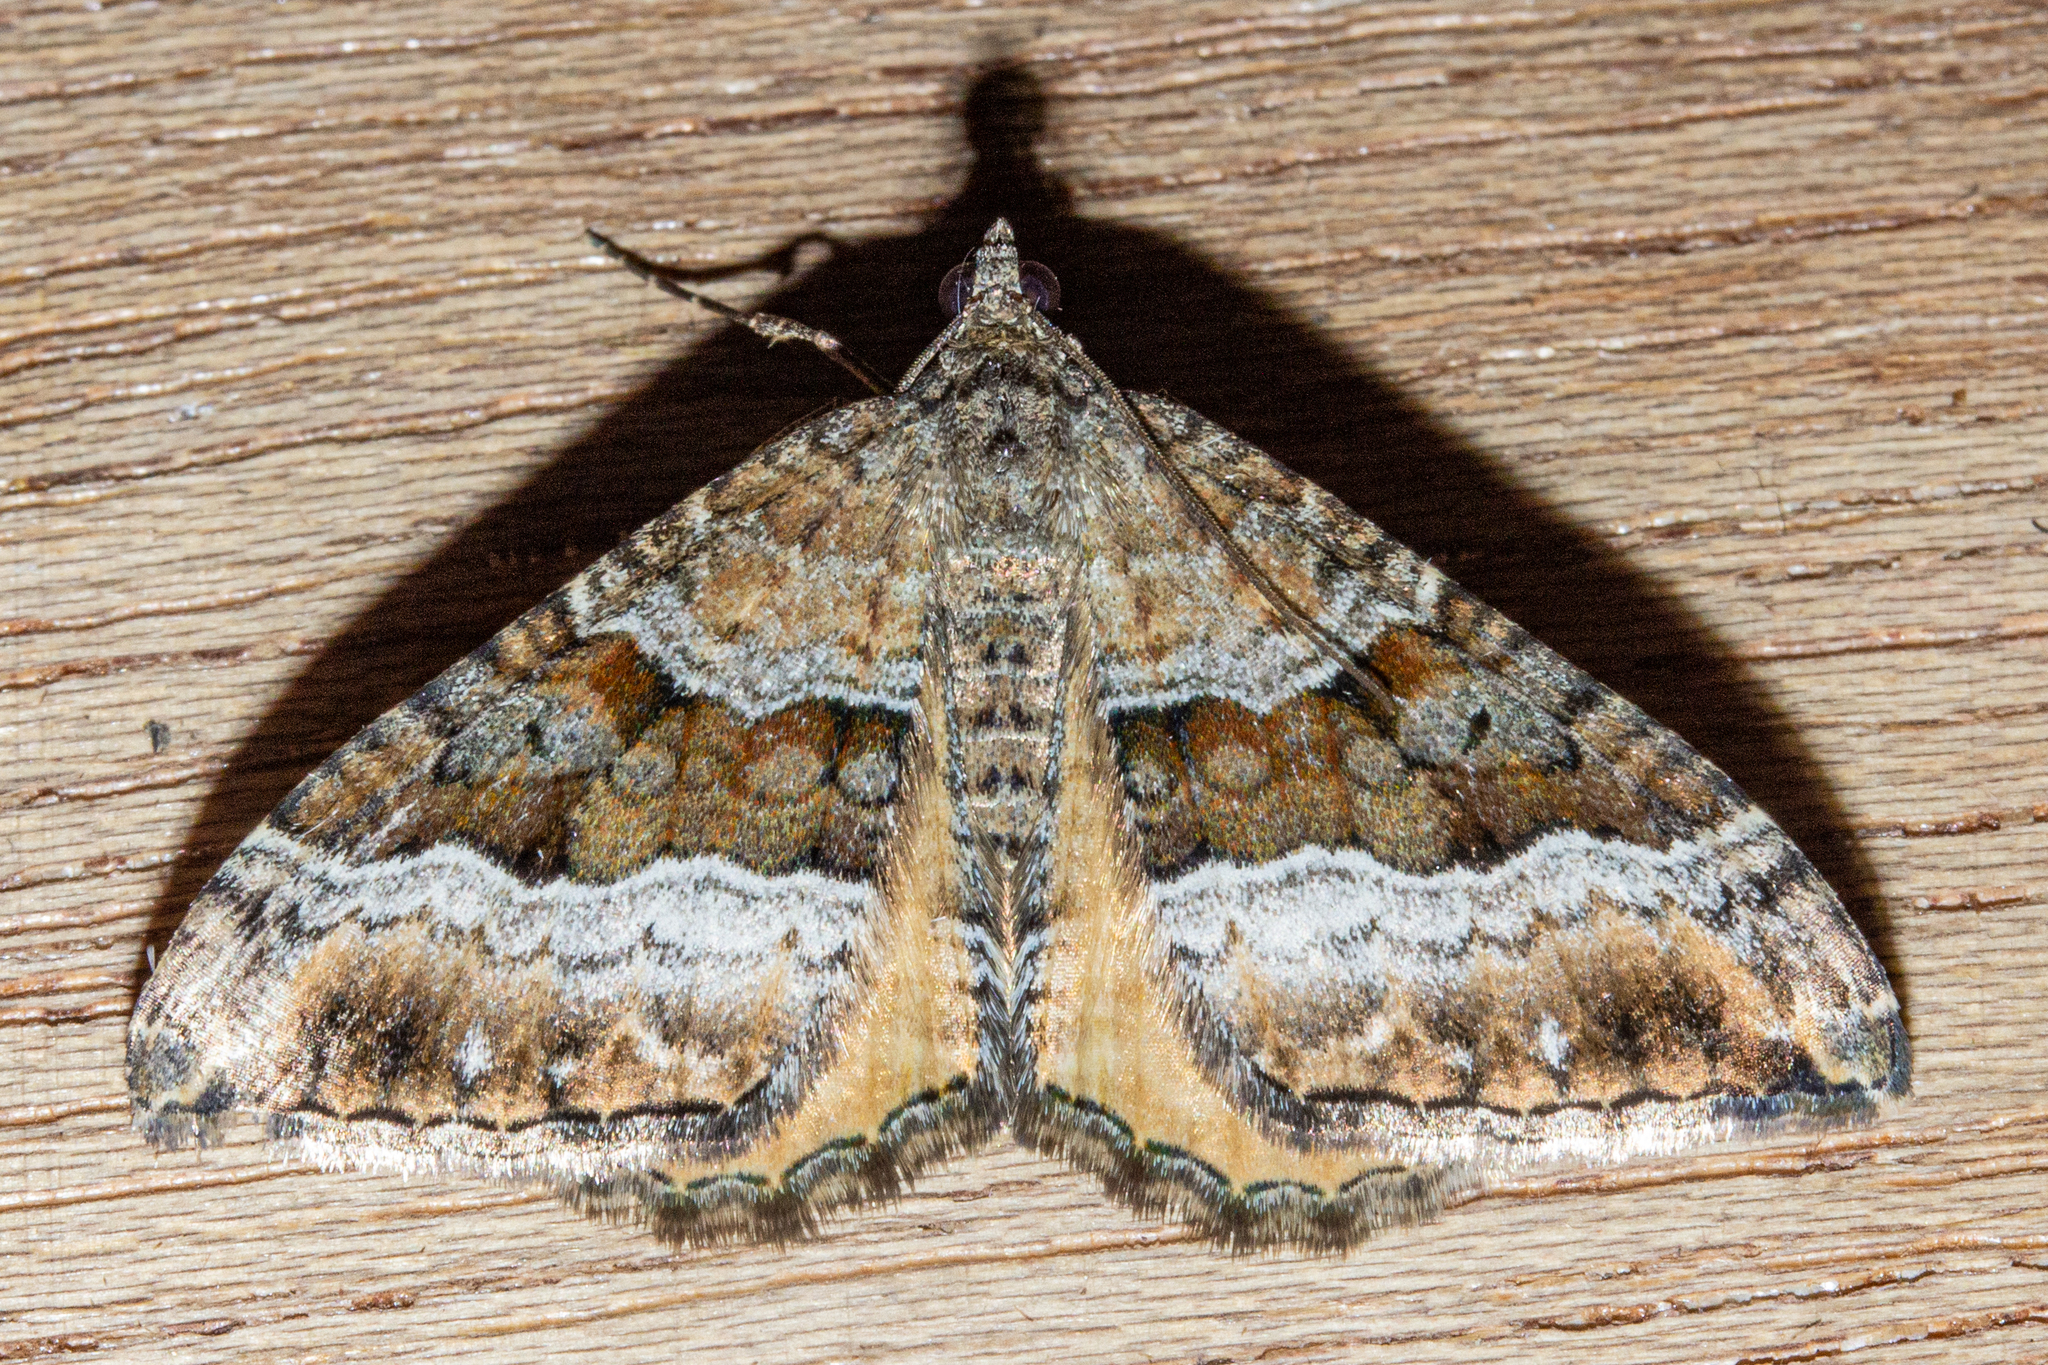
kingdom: Animalia
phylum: Arthropoda
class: Insecta
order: Lepidoptera
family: Geometridae
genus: Hydriomena
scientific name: Hydriomena deltoidata
